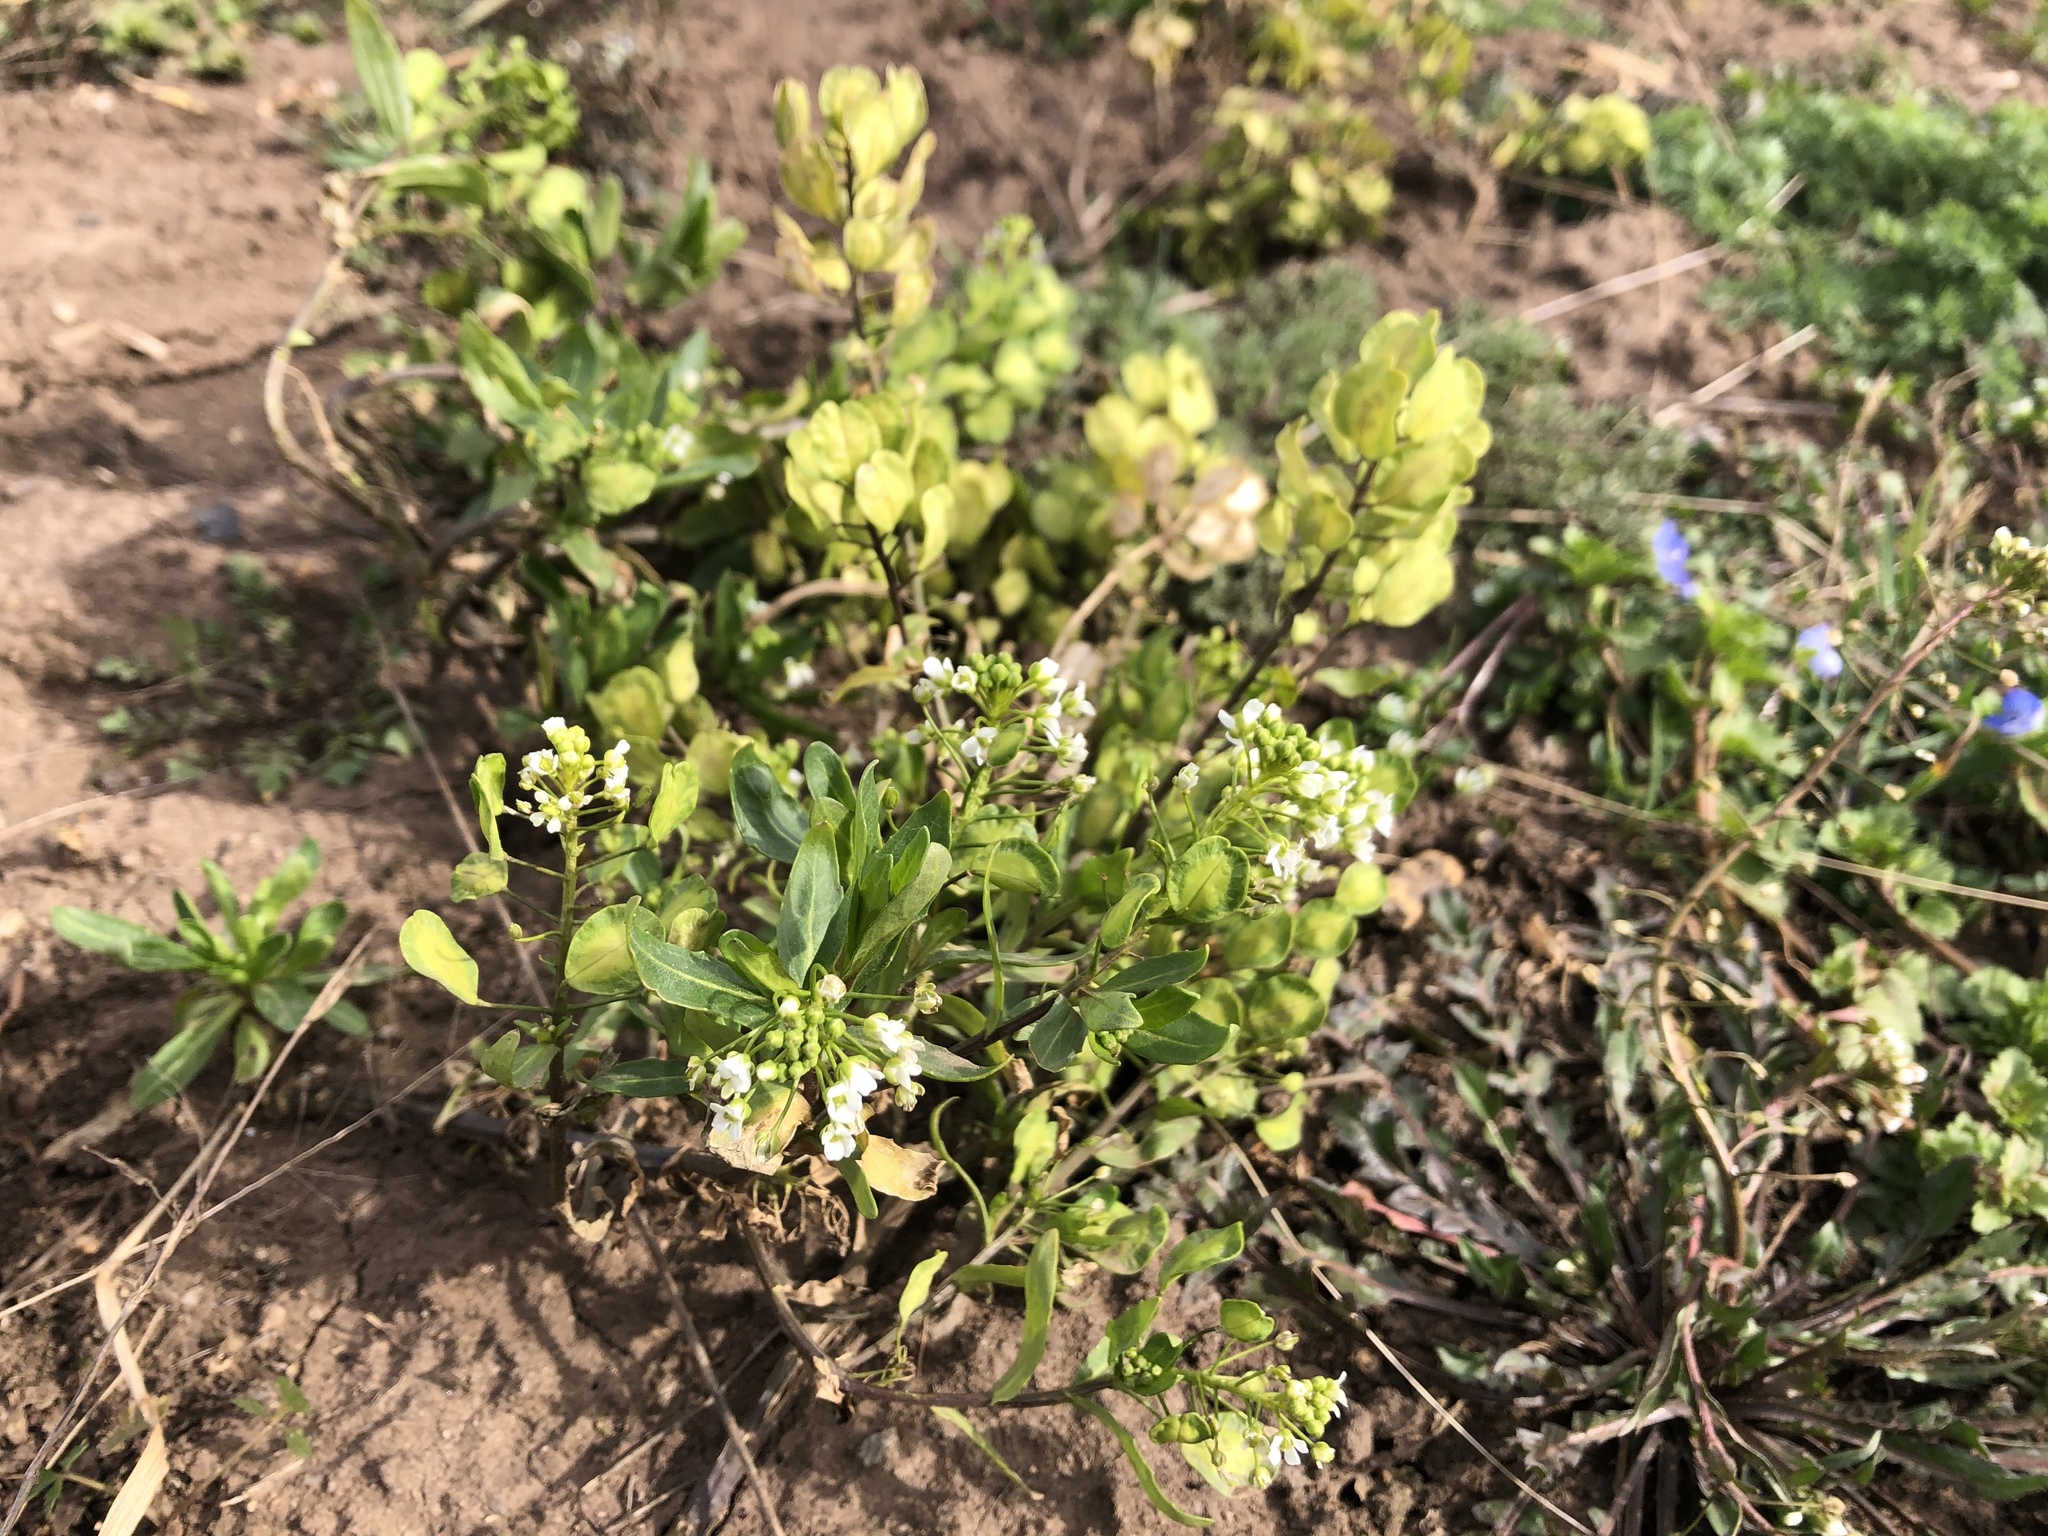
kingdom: Plantae
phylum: Tracheophyta
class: Magnoliopsida
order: Brassicales
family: Brassicaceae
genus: Thlaspi
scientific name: Thlaspi arvense
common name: Field pennycress
